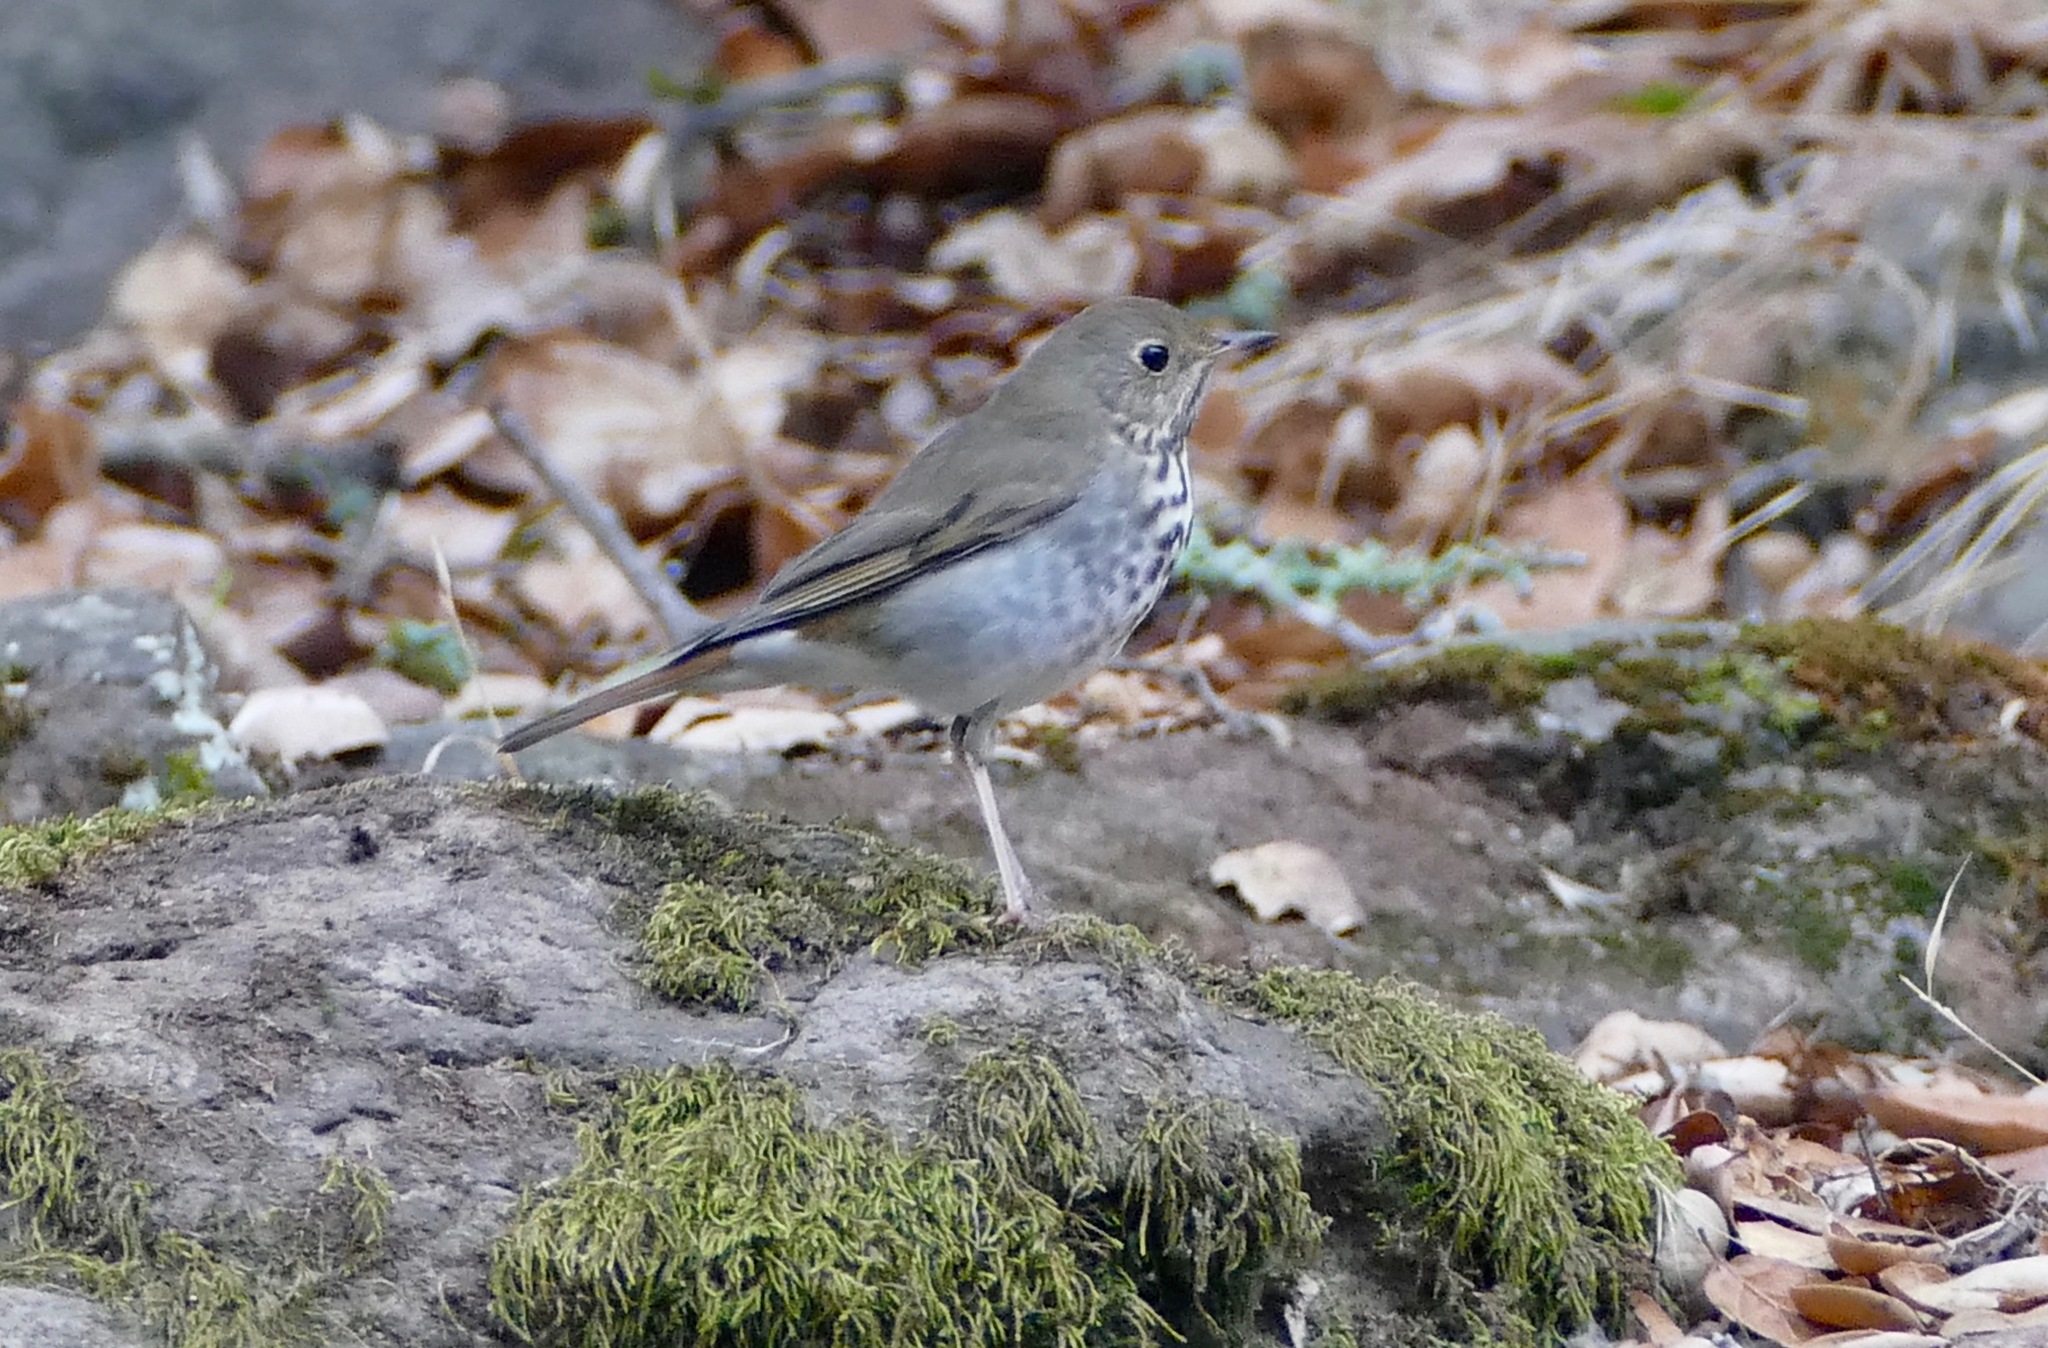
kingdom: Animalia
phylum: Chordata
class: Aves
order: Passeriformes
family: Turdidae
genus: Catharus
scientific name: Catharus guttatus
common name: Hermit thrush
